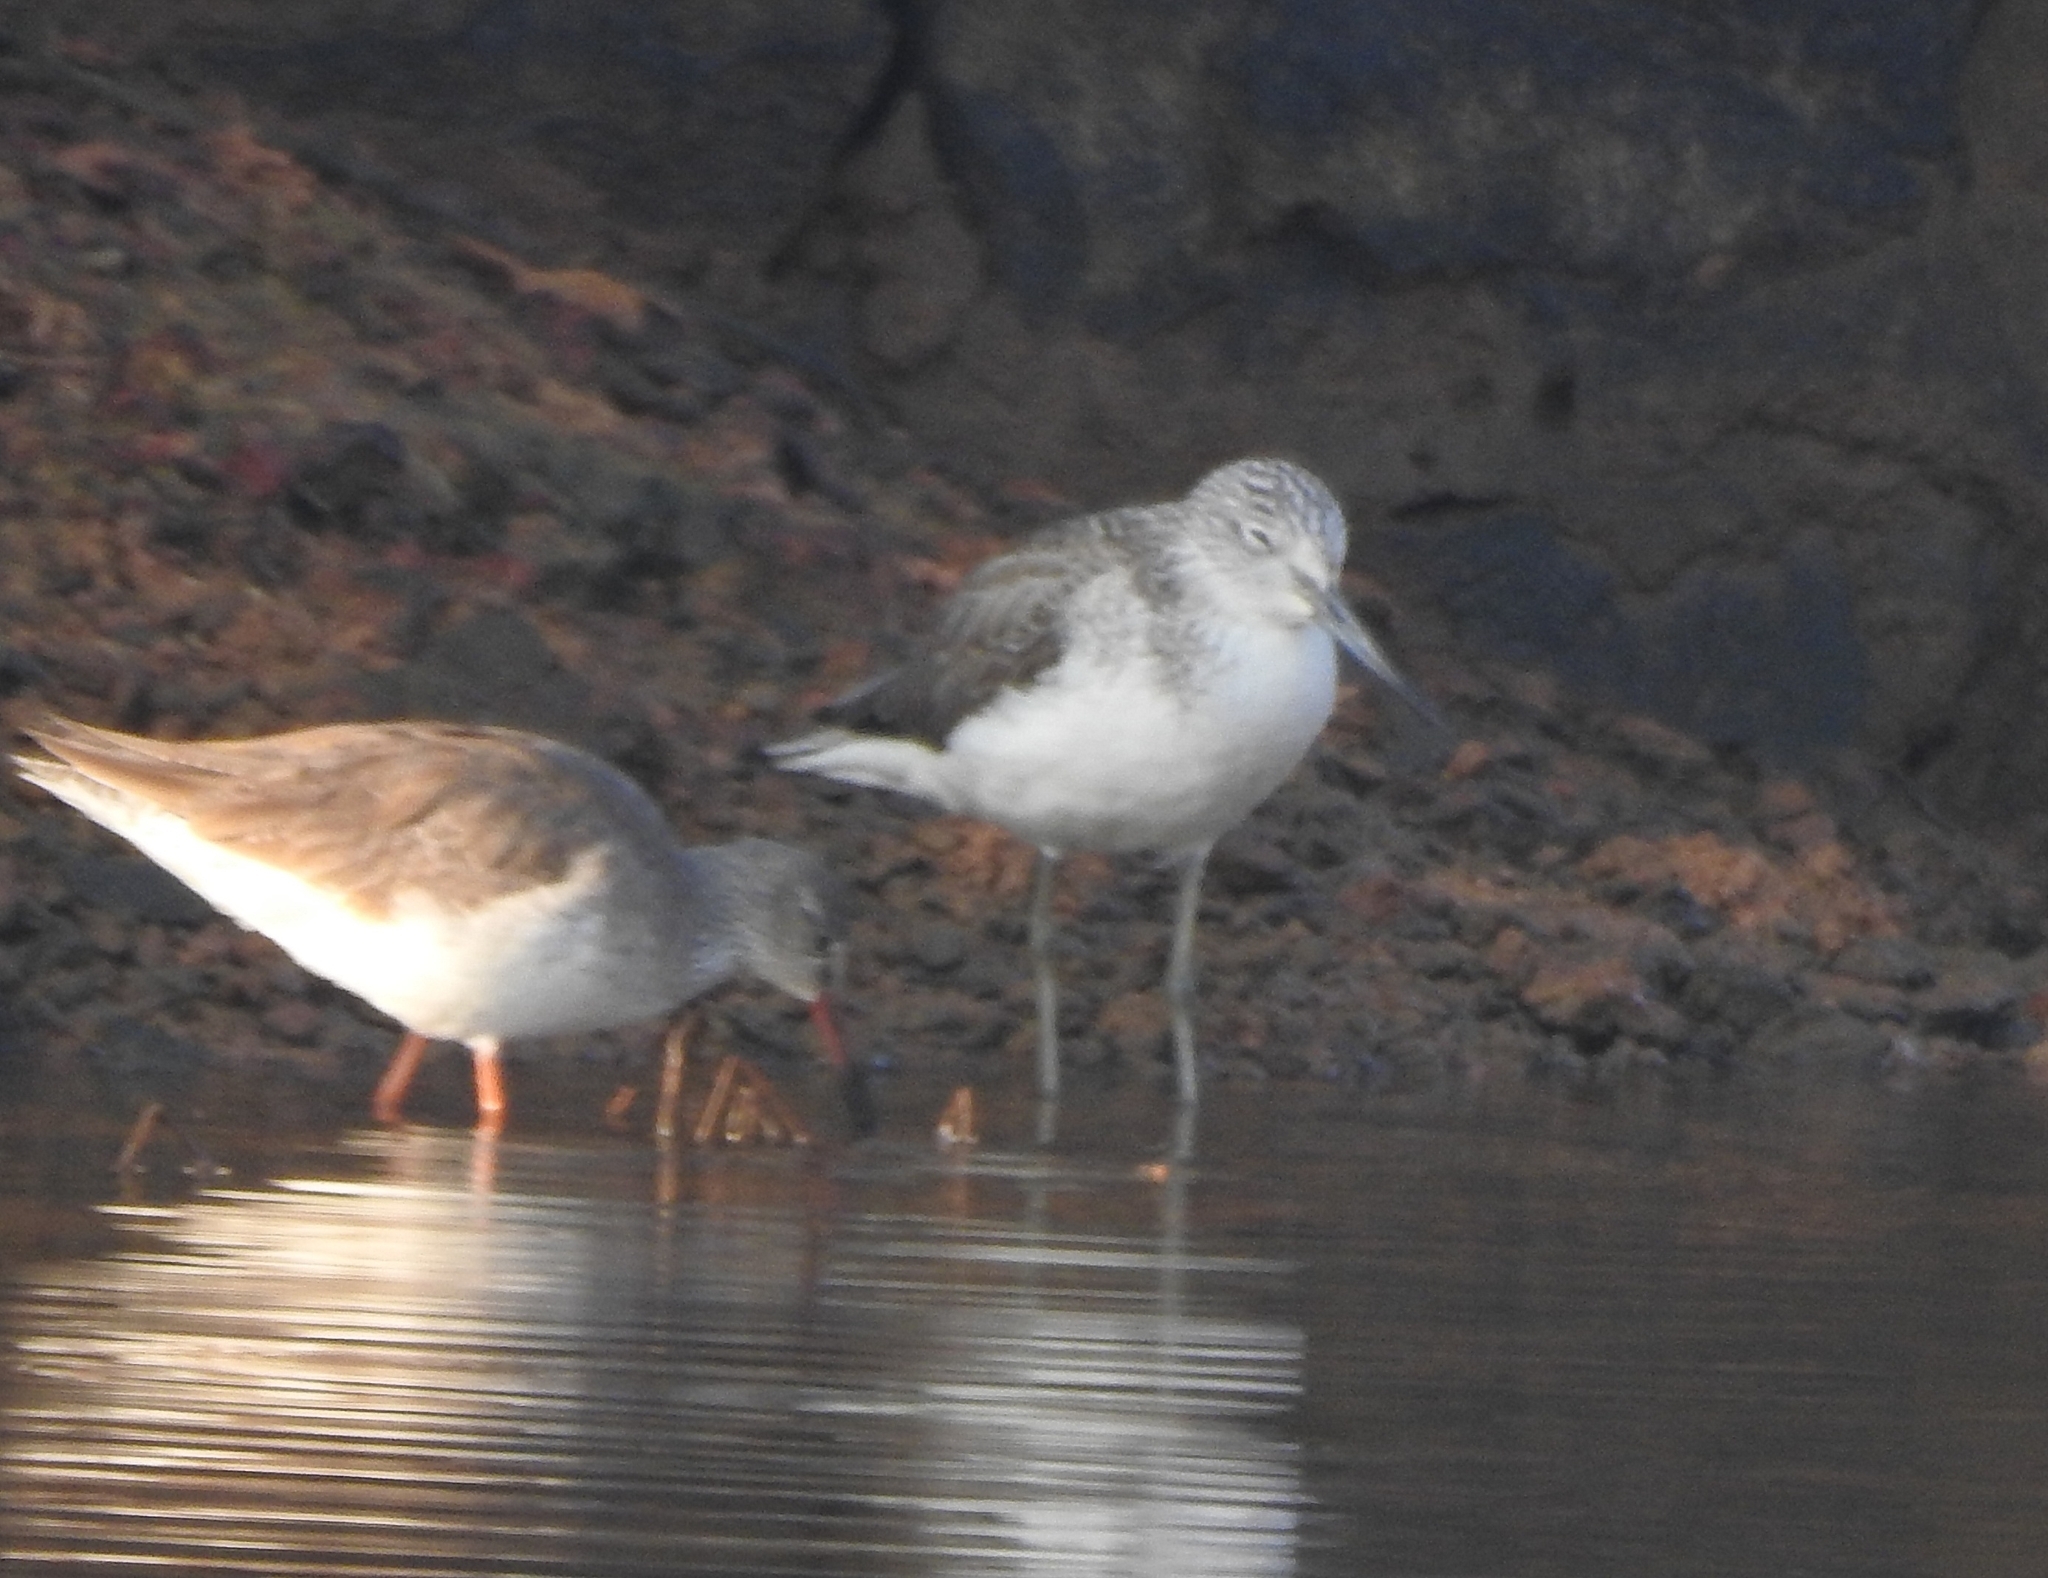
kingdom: Animalia
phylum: Chordata
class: Aves
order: Charadriiformes
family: Scolopacidae
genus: Tringa
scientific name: Tringa totanus
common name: Common redshank
